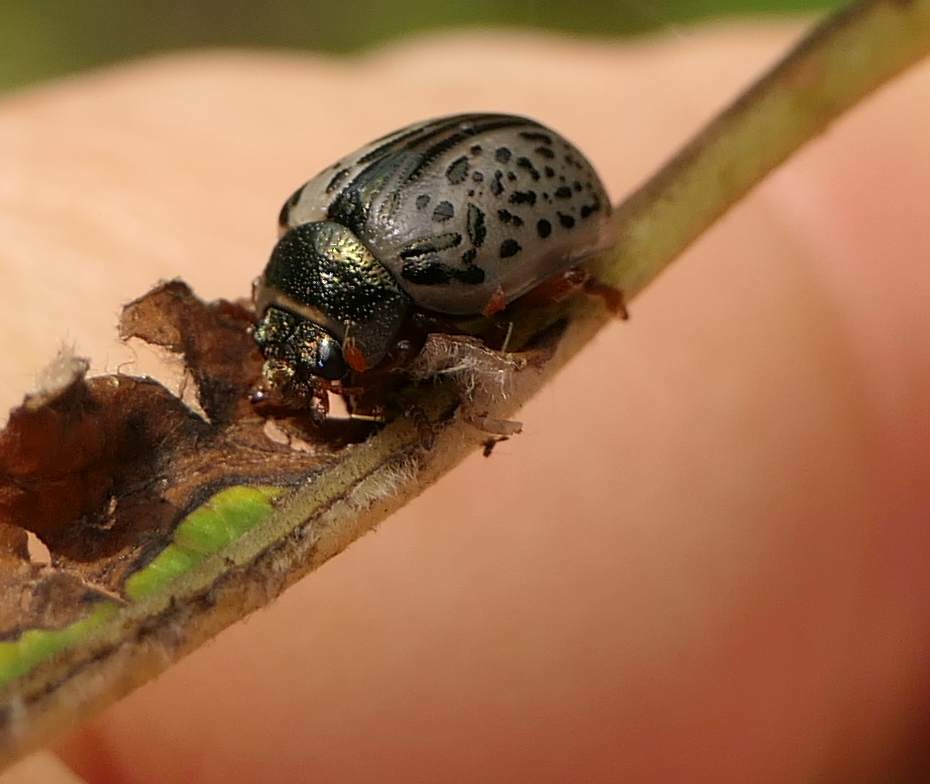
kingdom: Animalia
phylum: Arthropoda
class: Insecta
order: Coleoptera
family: Chrysomelidae
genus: Calligrapha
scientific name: Calligrapha multipunctata
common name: Common willow calligrapher beetle
